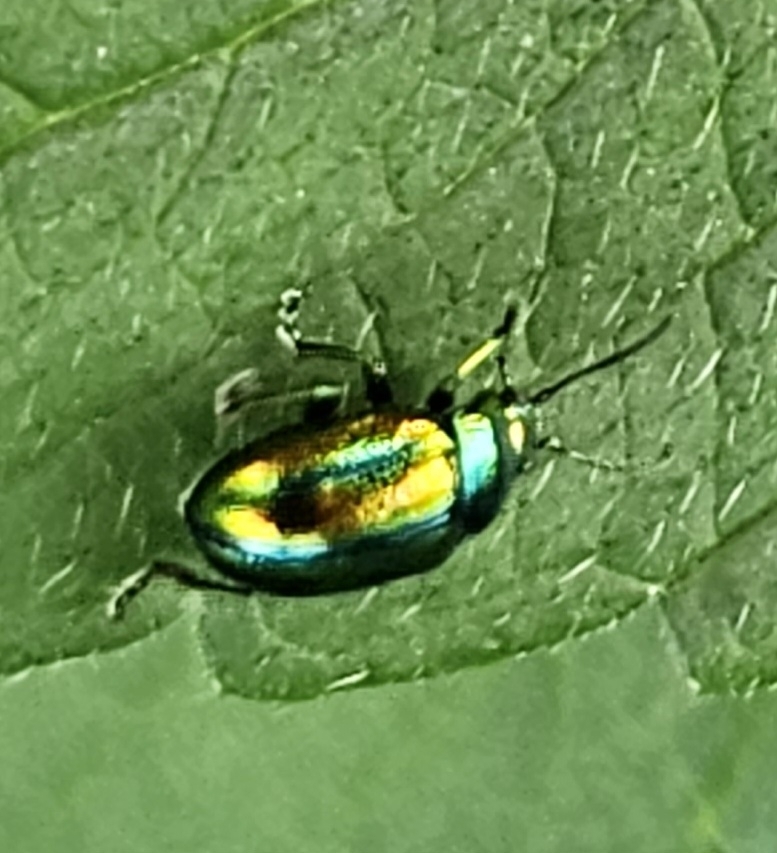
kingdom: Animalia
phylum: Arthropoda
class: Insecta
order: Coleoptera
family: Chrysomelidae
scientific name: Chrysomelidae
